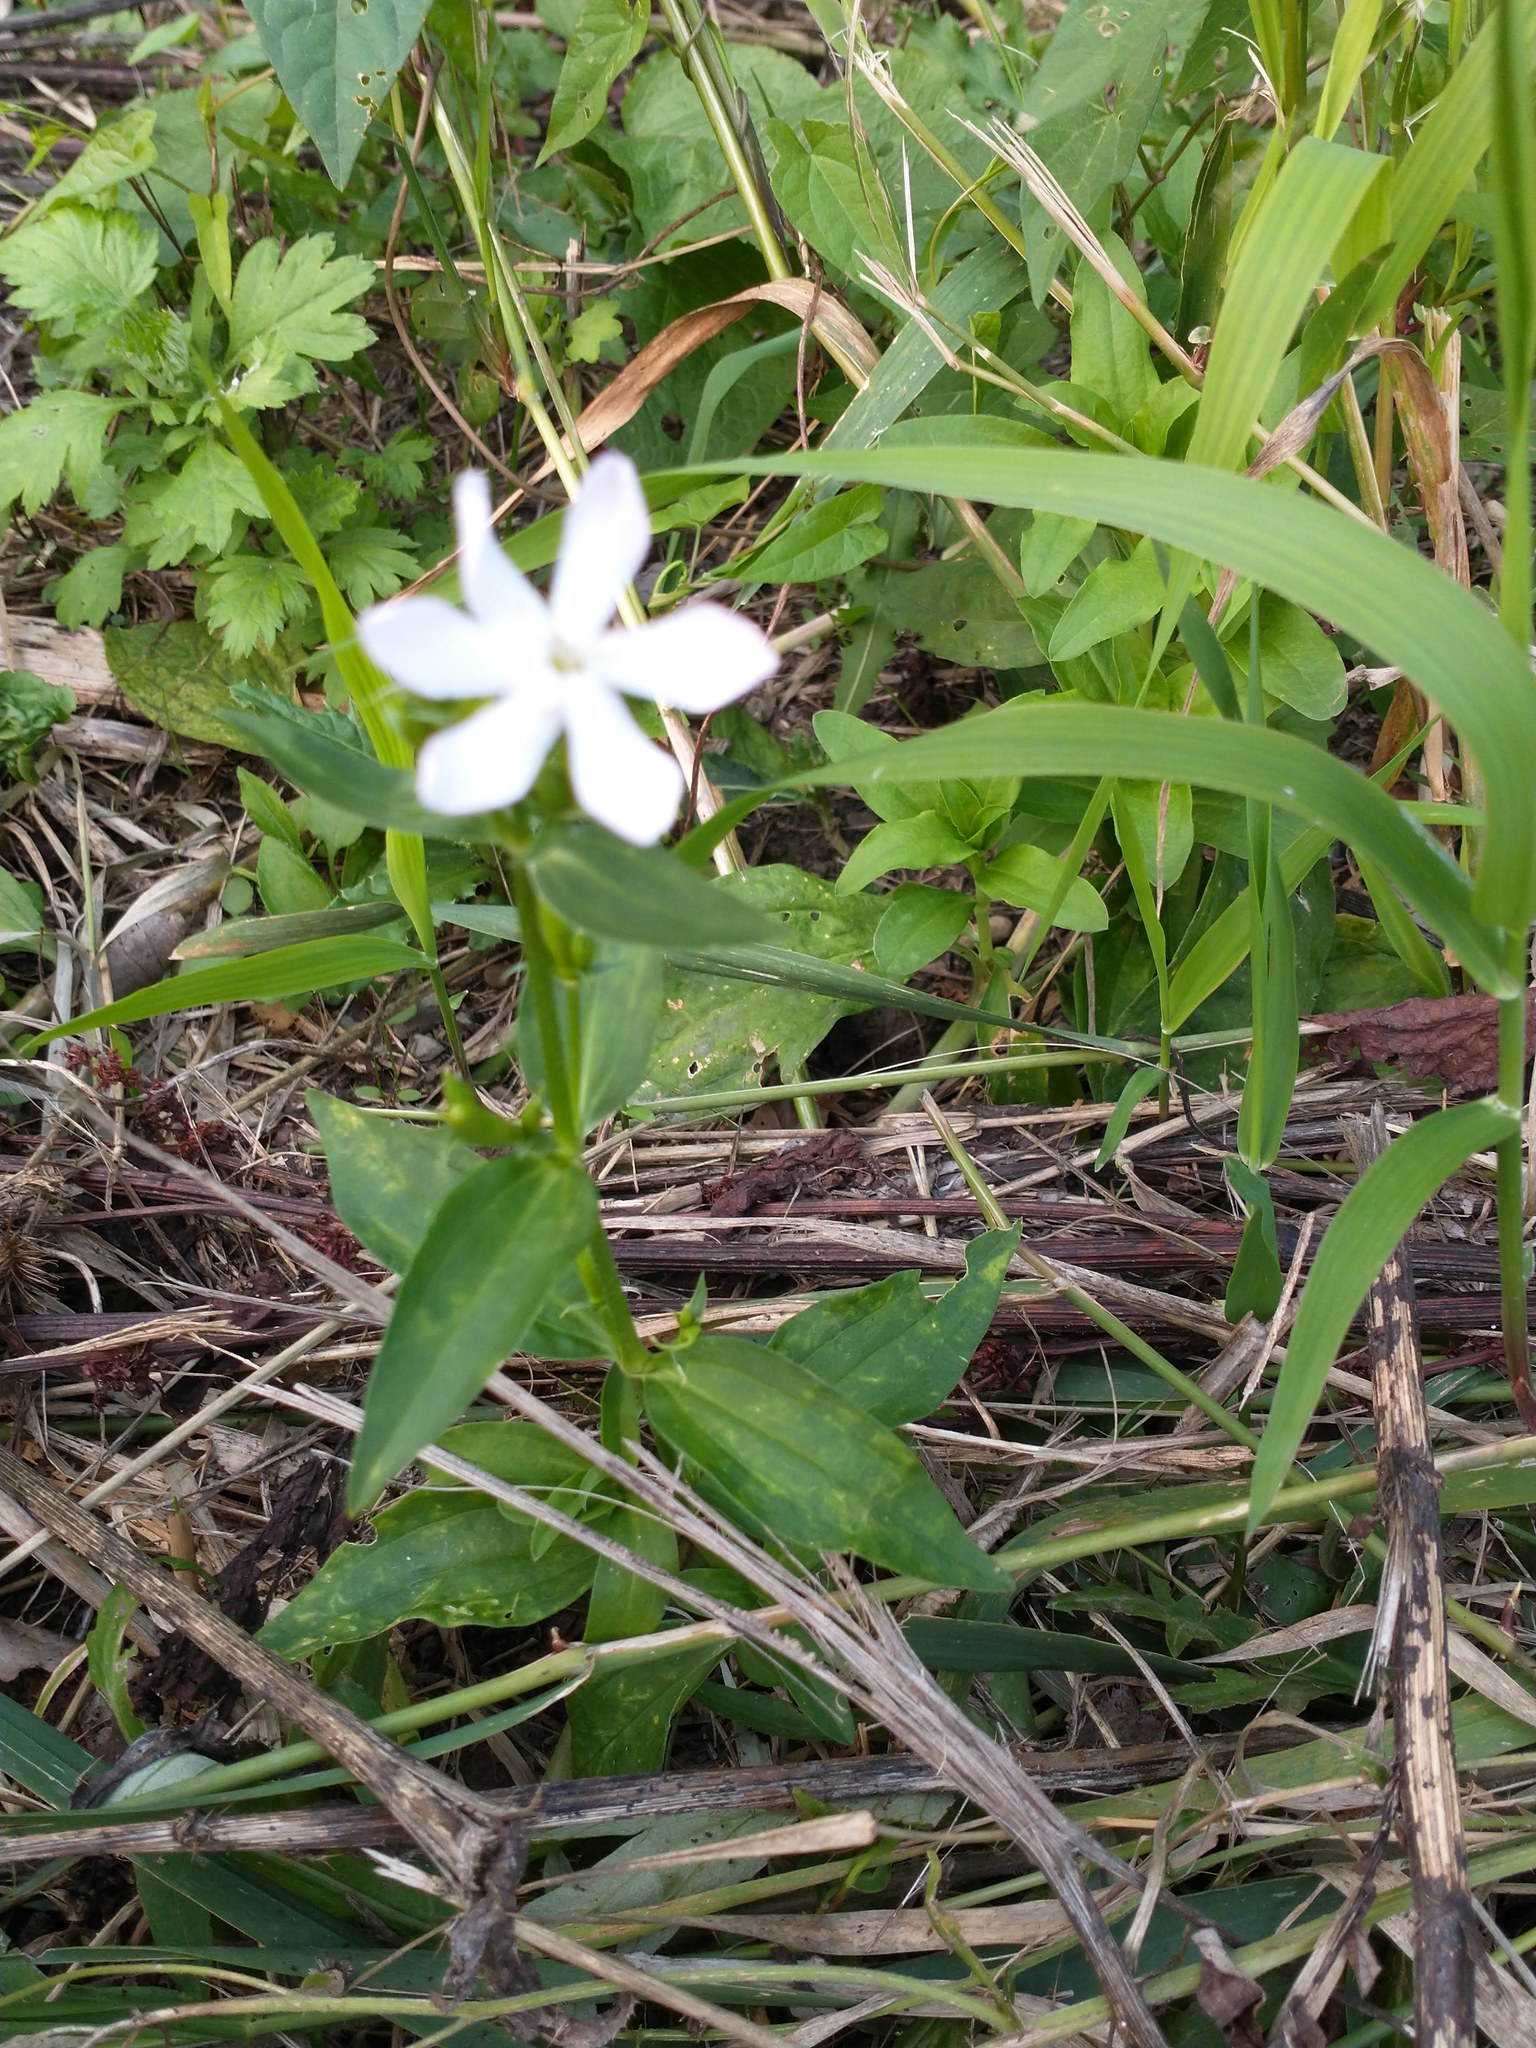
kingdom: Plantae
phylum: Tracheophyta
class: Magnoliopsida
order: Caryophyllales
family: Caryophyllaceae
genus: Saponaria
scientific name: Saponaria officinalis
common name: Soapwort
